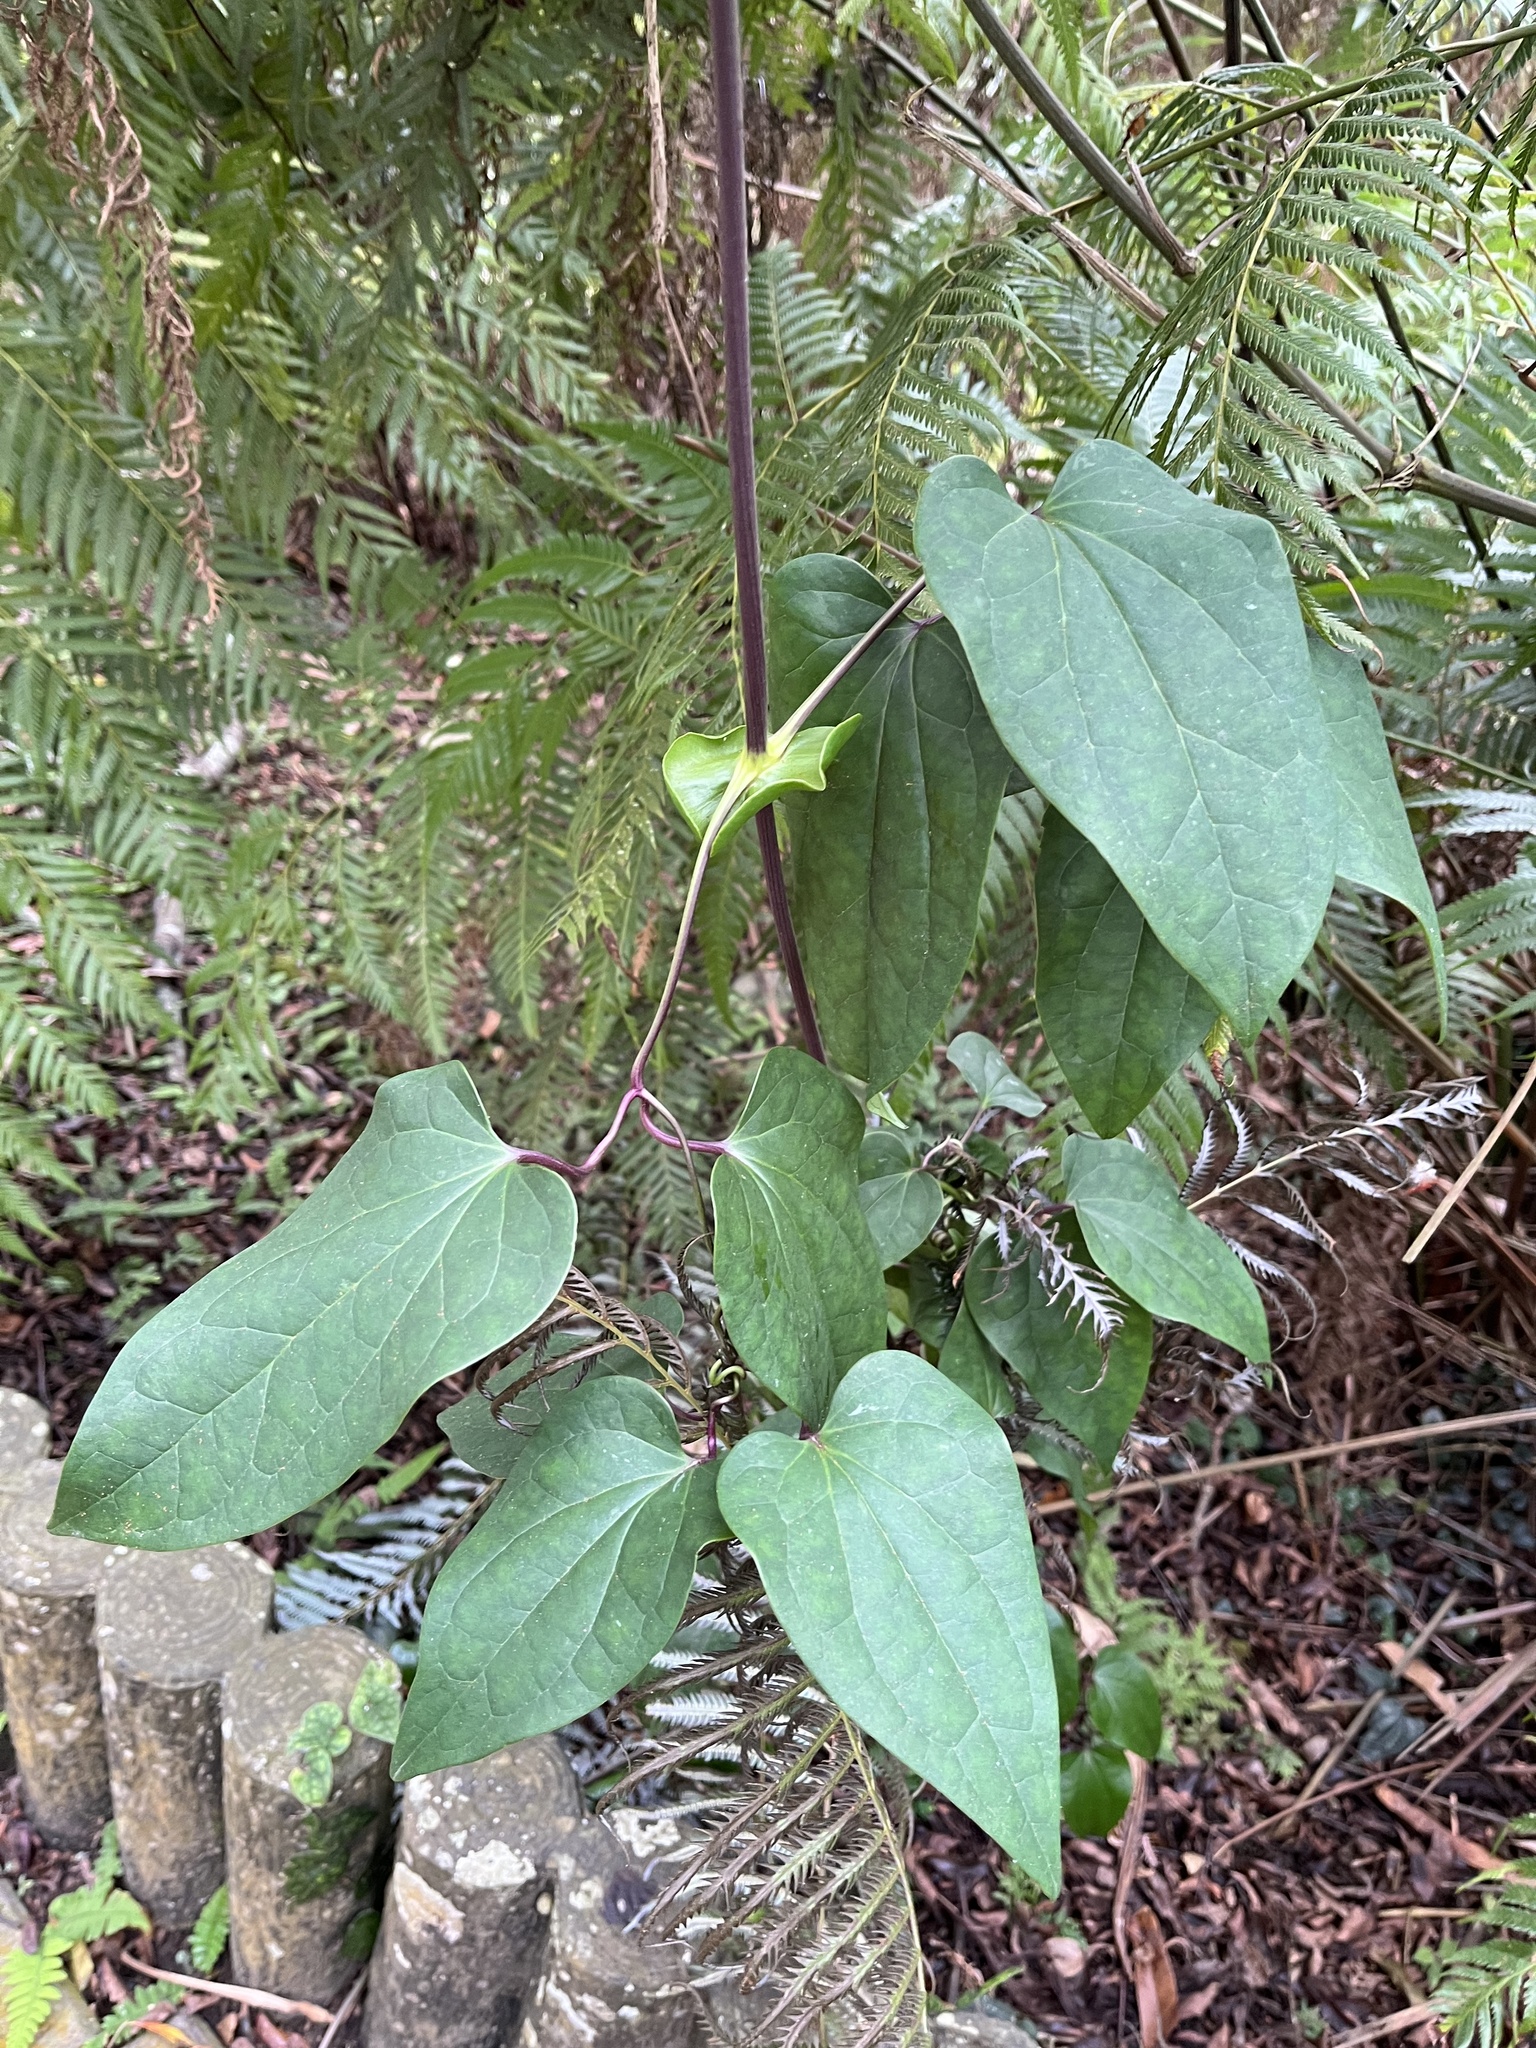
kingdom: Plantae
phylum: Tracheophyta
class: Magnoliopsida
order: Ranunculales
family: Ranunculaceae
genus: Clematis
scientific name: Clematis tashiroi
